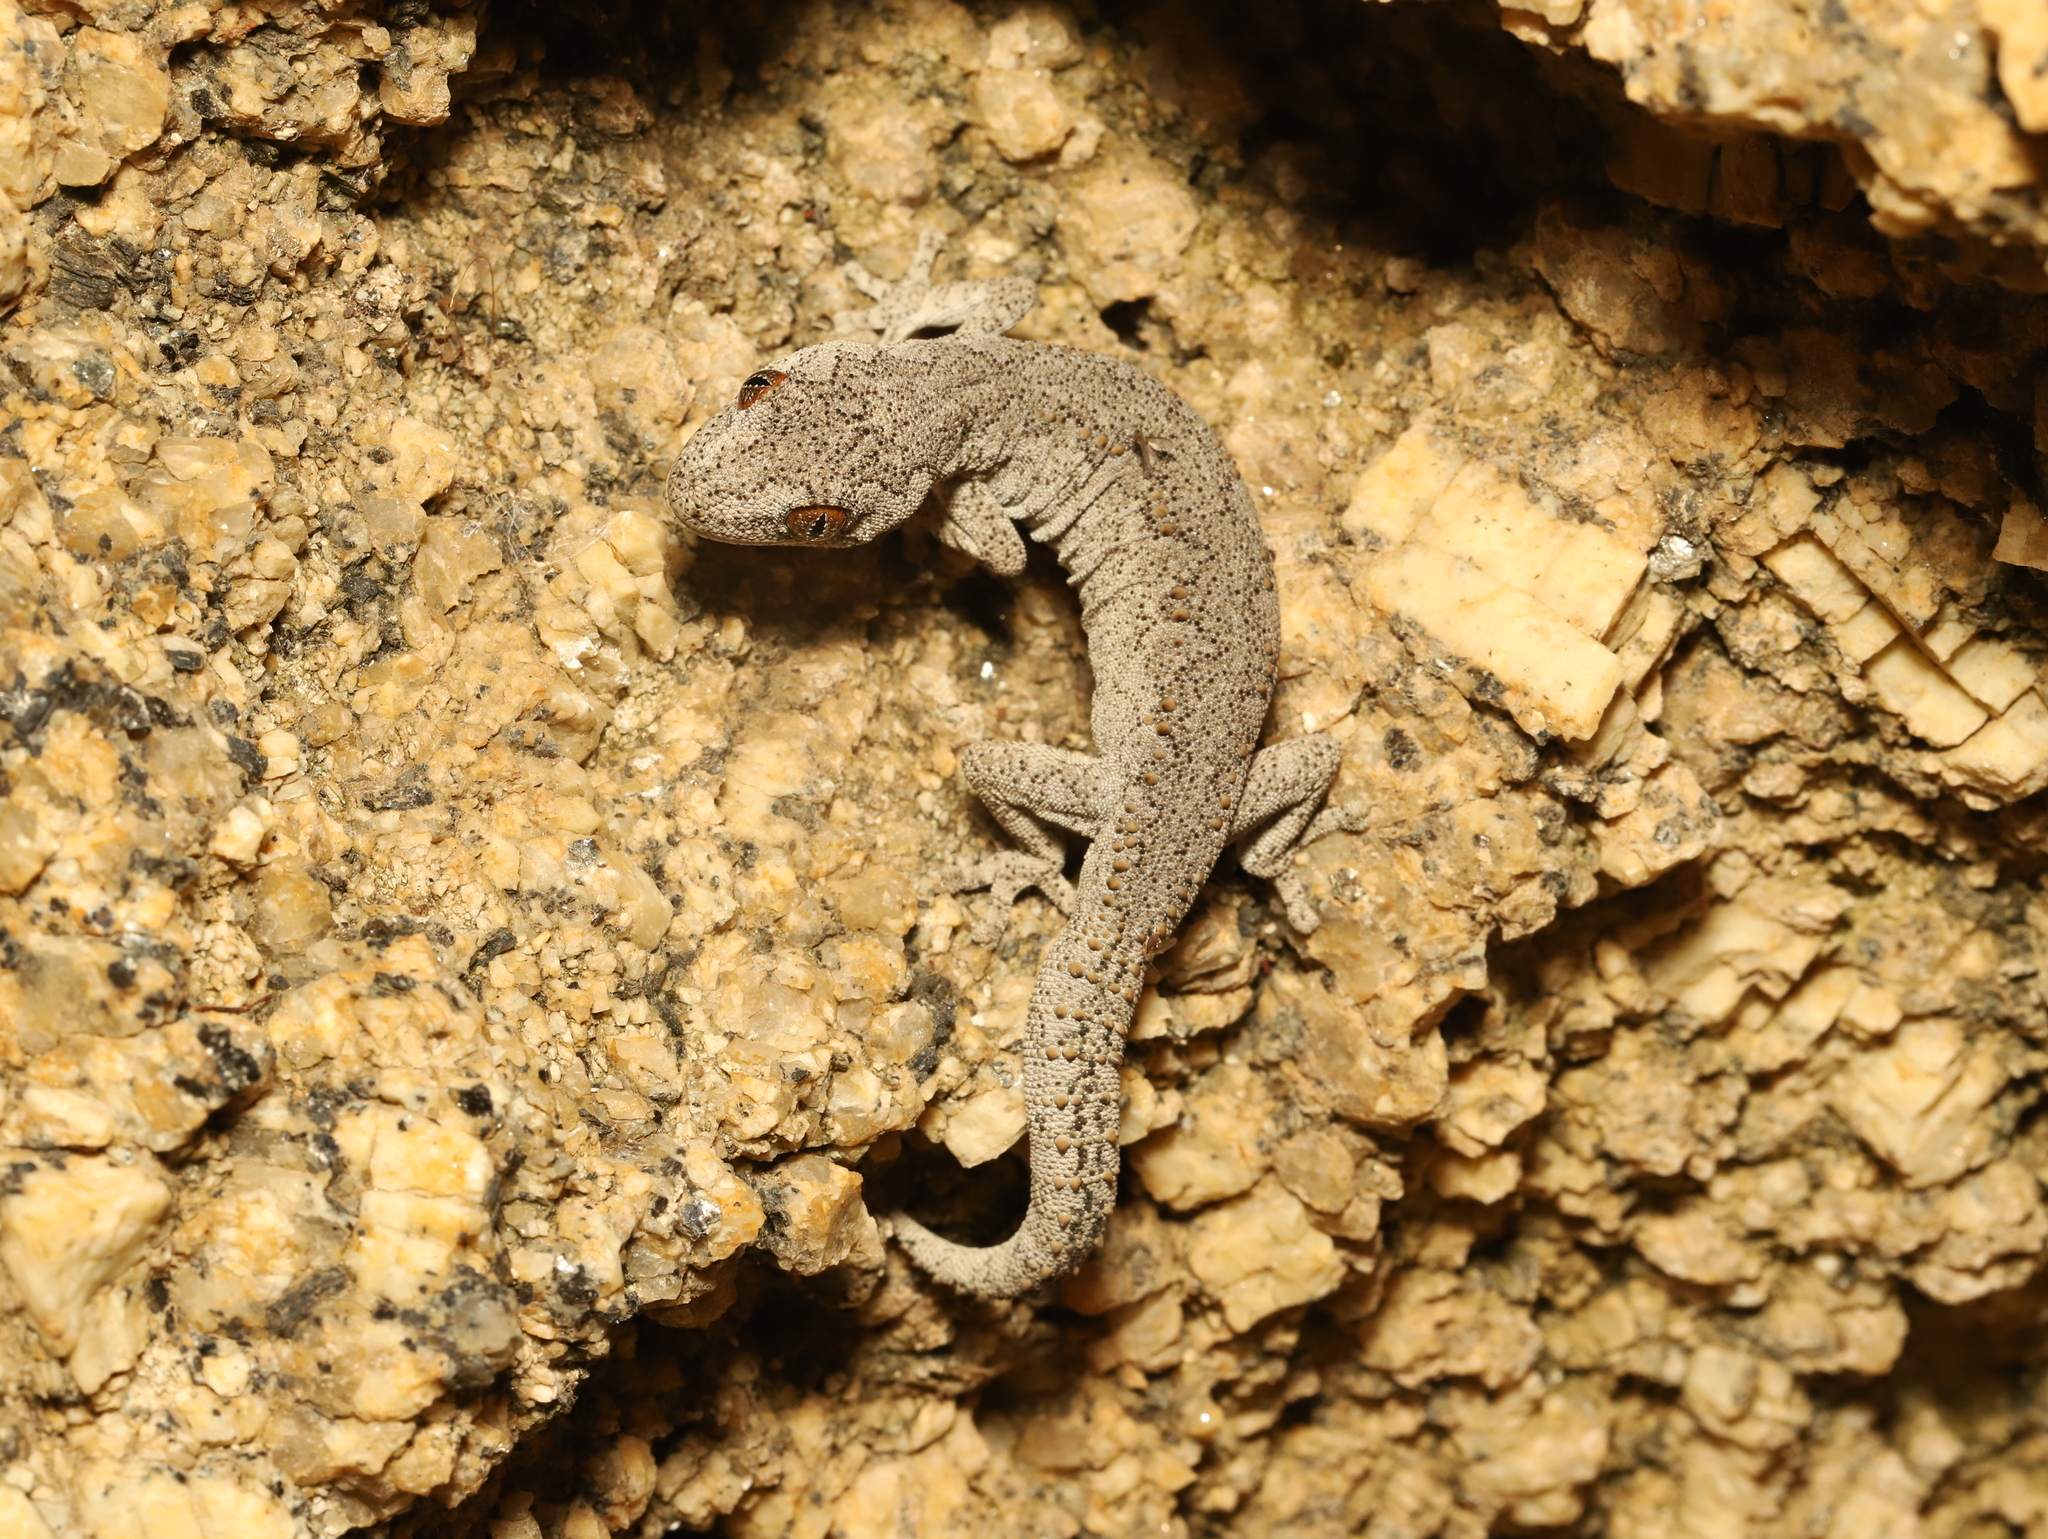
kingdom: Animalia
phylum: Chordata
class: Squamata
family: Diplodactylidae
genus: Strophurus
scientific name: Strophurus intermedius
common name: Eastern spiny-tailed gecko
